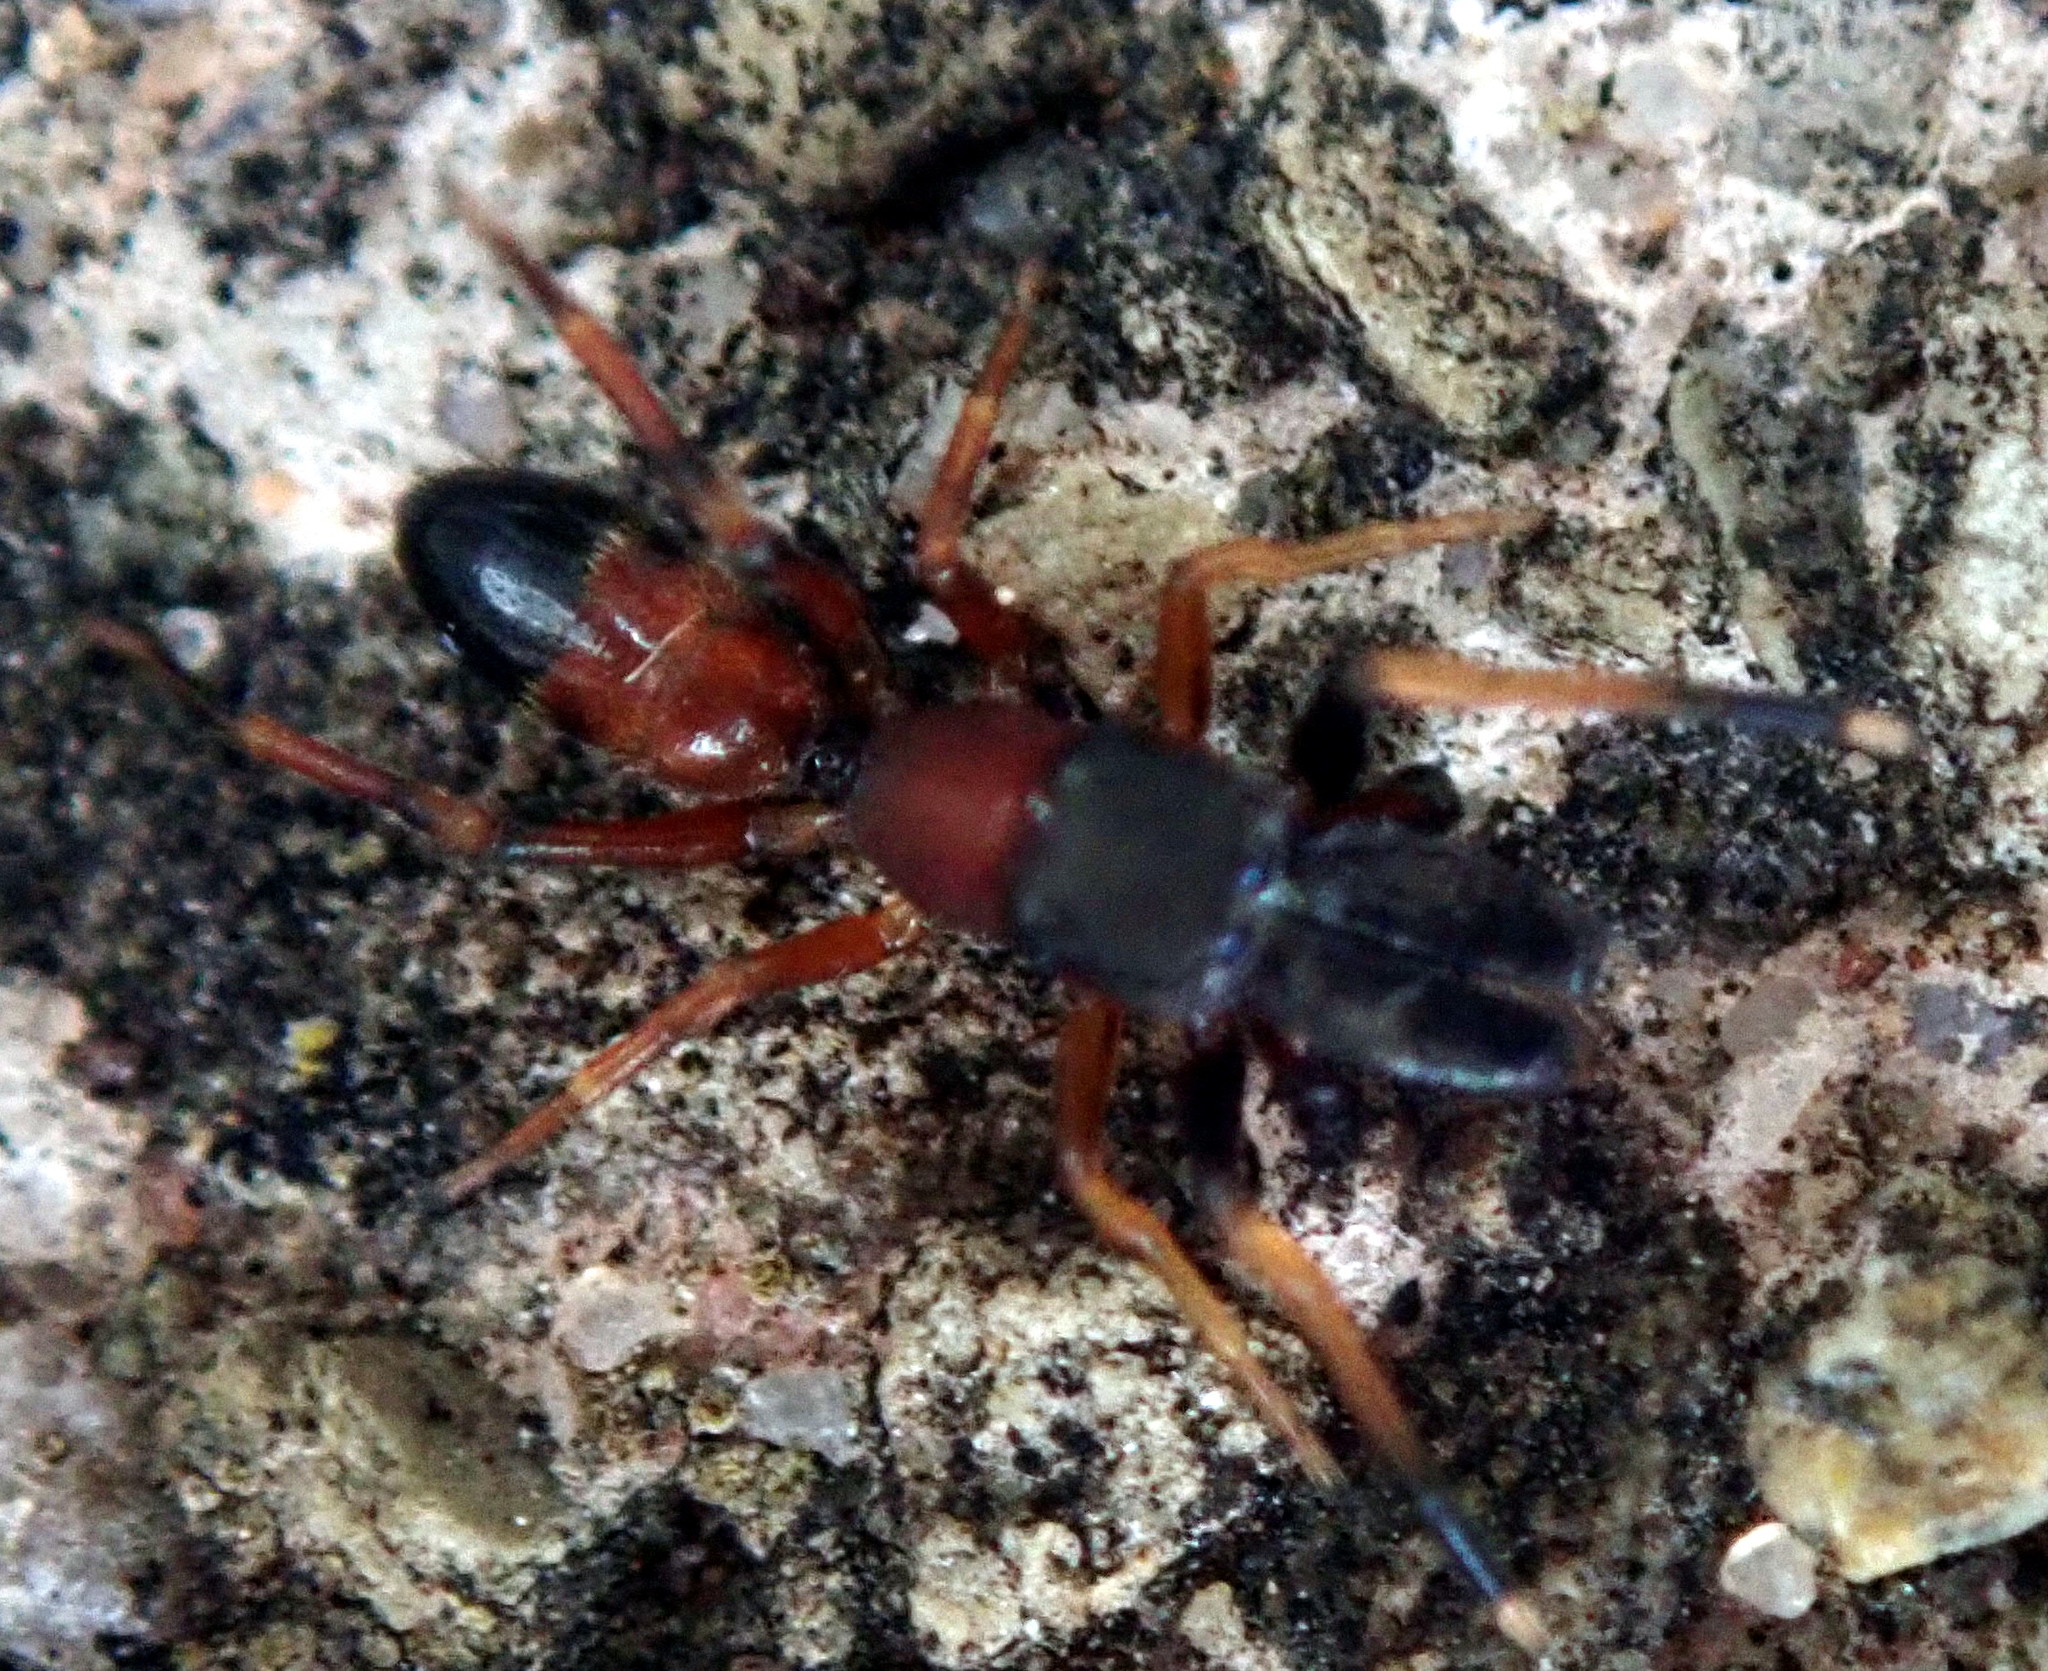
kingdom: Animalia
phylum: Arthropoda
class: Arachnida
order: Araneae
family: Salticidae
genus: Myrmarachne
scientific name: Myrmarachne formicaria
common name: Ant mimic jumping spider
